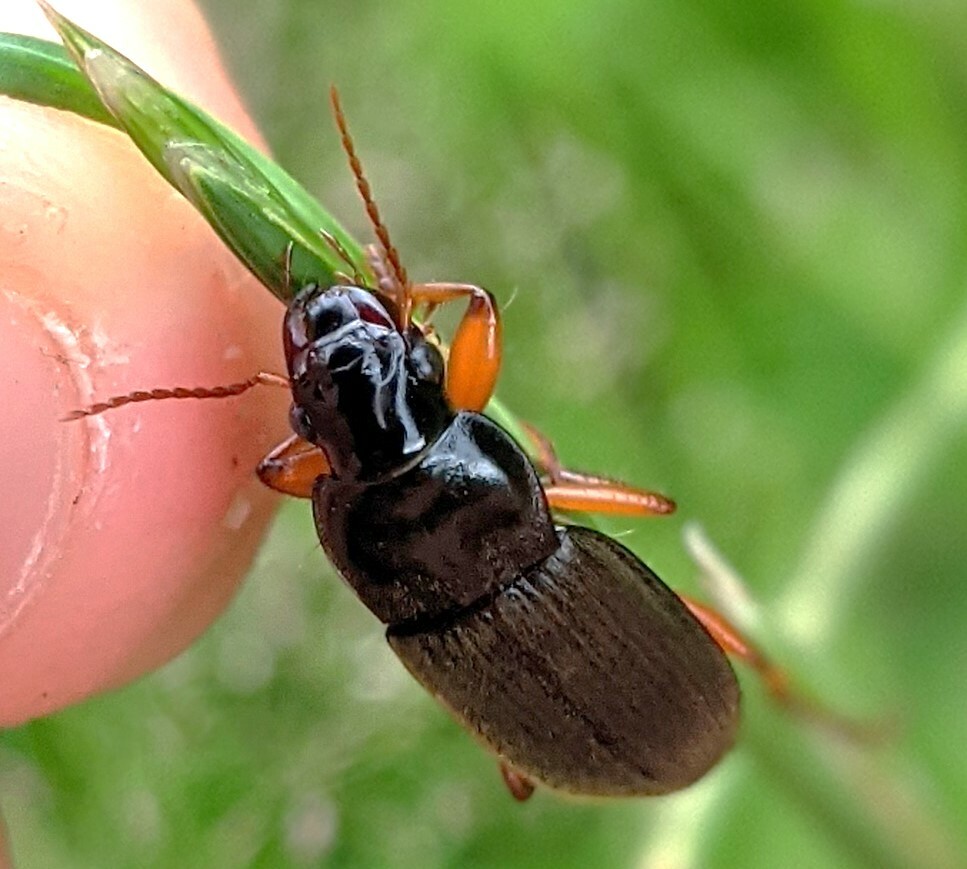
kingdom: Animalia
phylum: Arthropoda
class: Insecta
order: Coleoptera
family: Carabidae
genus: Harpalus
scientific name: Harpalus rufipes
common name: Strawberry harp ground beetle
